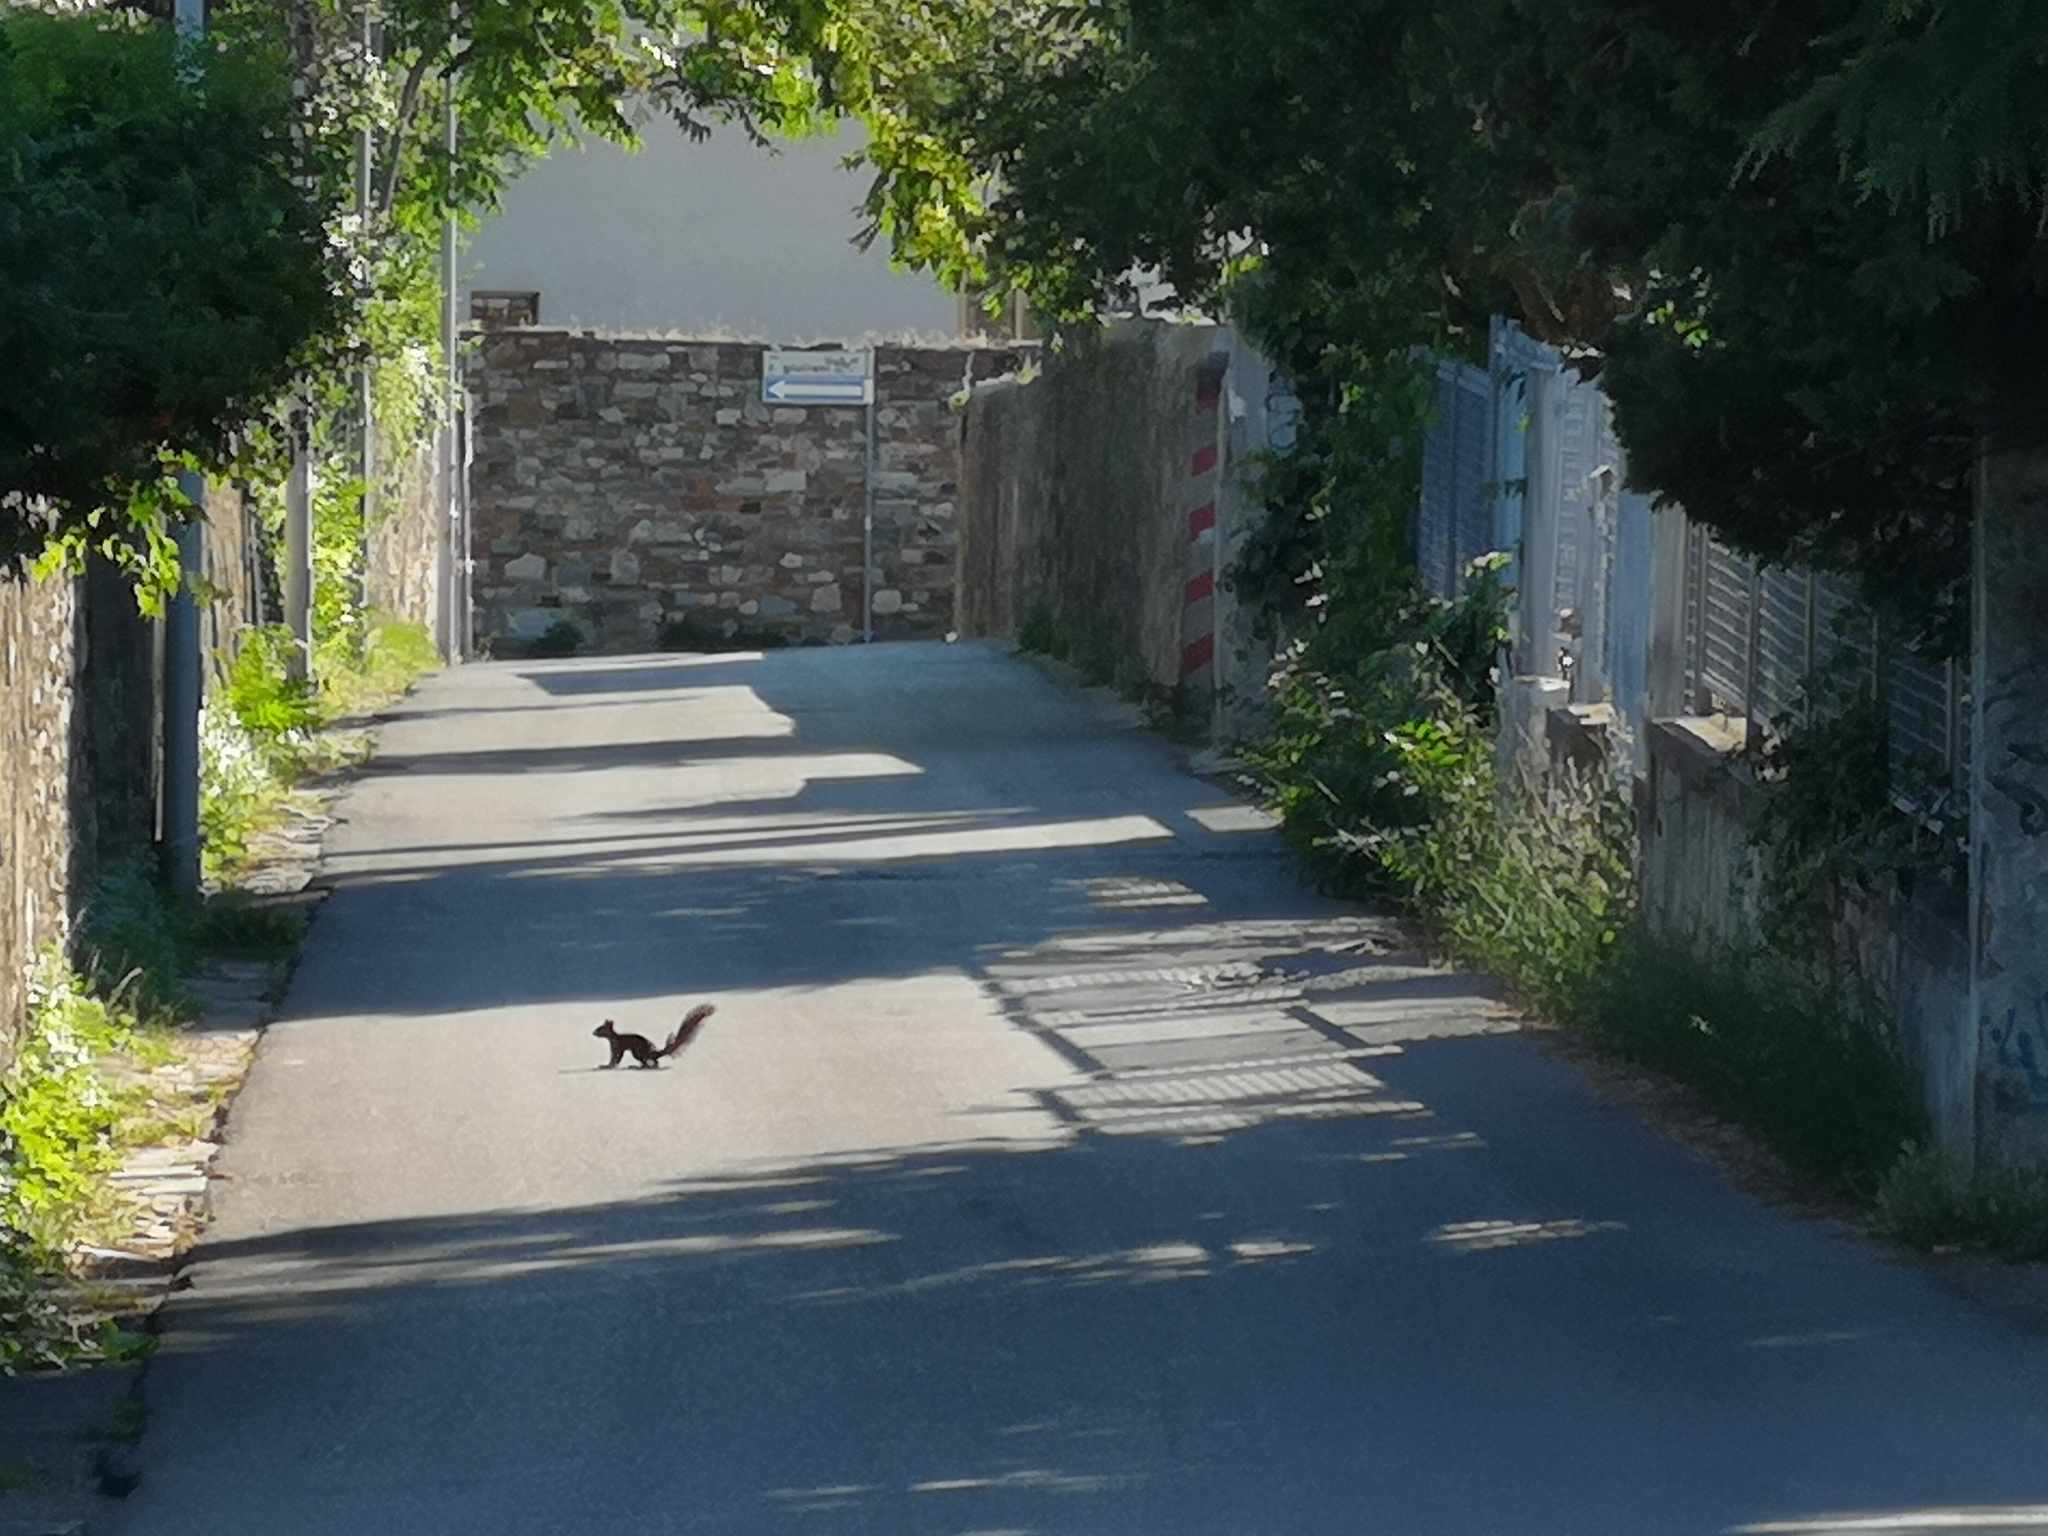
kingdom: Animalia
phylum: Chordata
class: Mammalia
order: Rodentia
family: Sciuridae
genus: Sciurus
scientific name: Sciurus vulgaris
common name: Eurasian red squirrel
